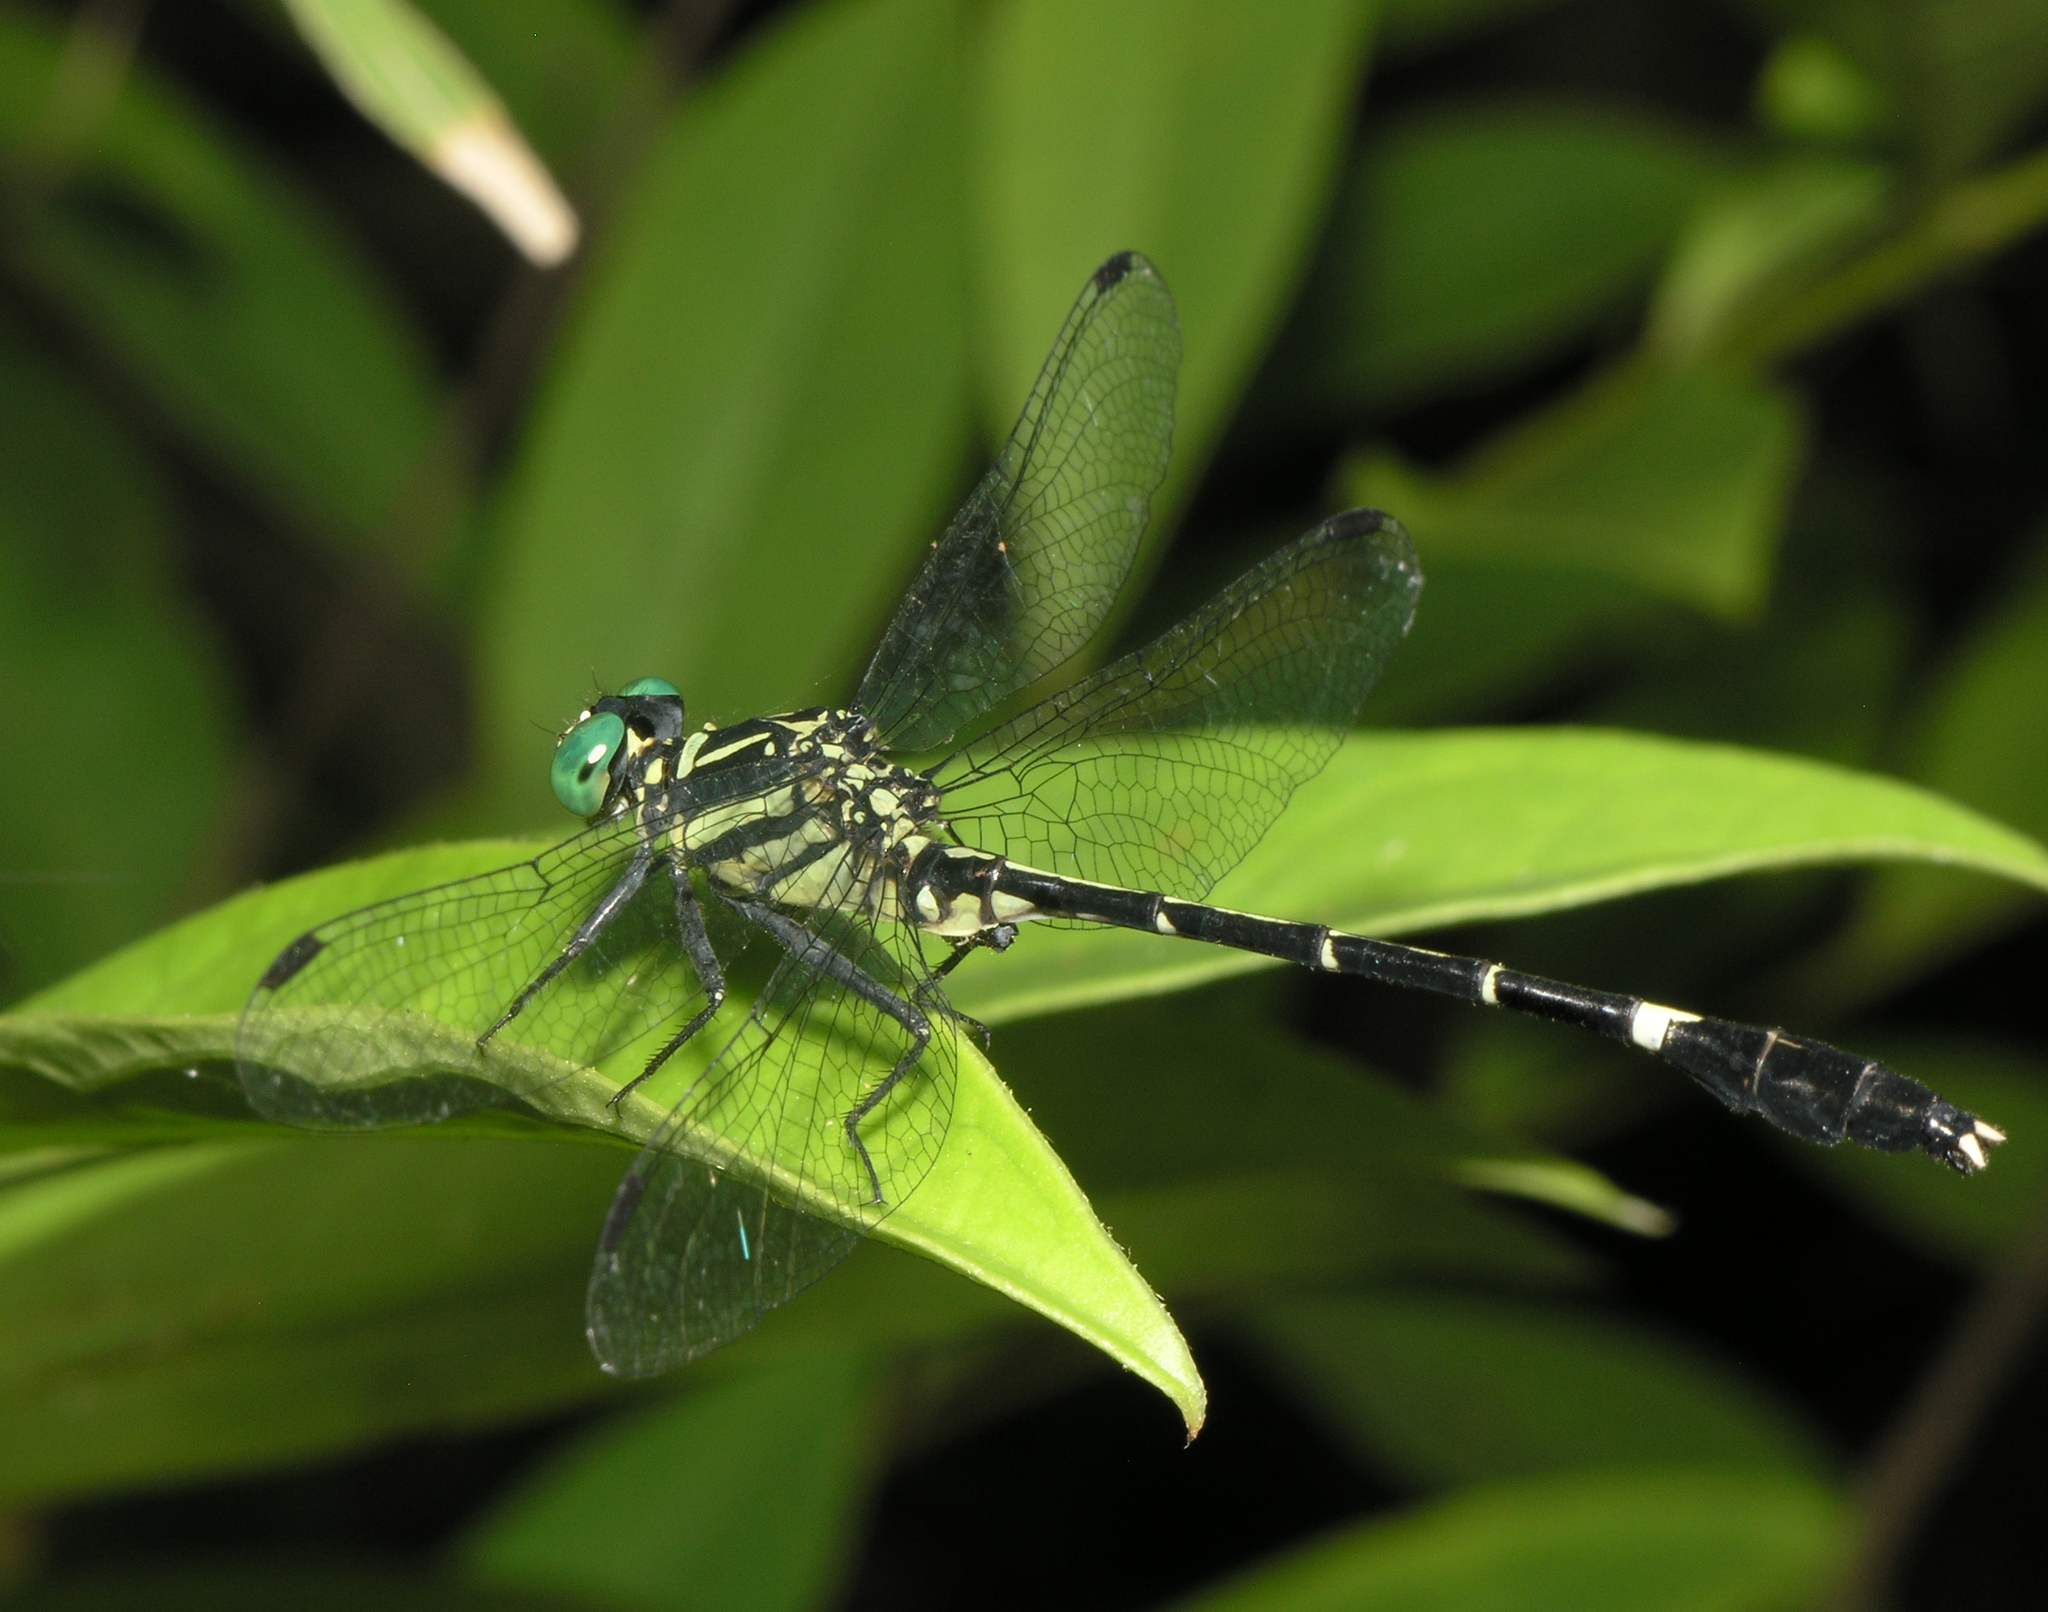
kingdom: Animalia
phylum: Arthropoda
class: Insecta
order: Odonata
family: Gomphidae
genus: Euthygomphus
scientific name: Euthygomphus yunnanensis
